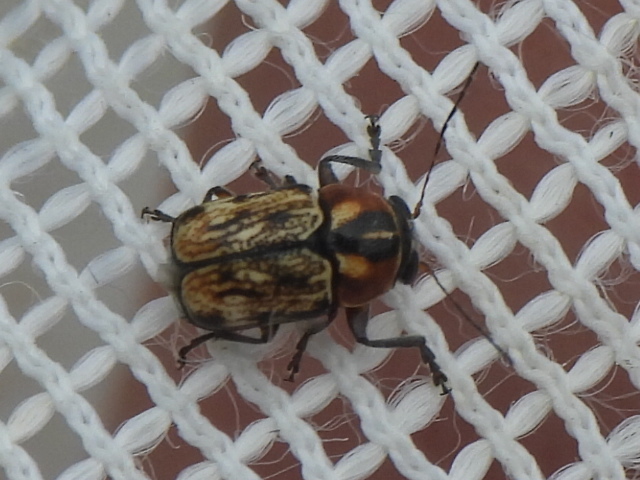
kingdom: Animalia
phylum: Arthropoda
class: Insecta
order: Coleoptera
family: Chrysomelidae
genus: Pachybrachis
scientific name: Pachybrachis subvittatus
